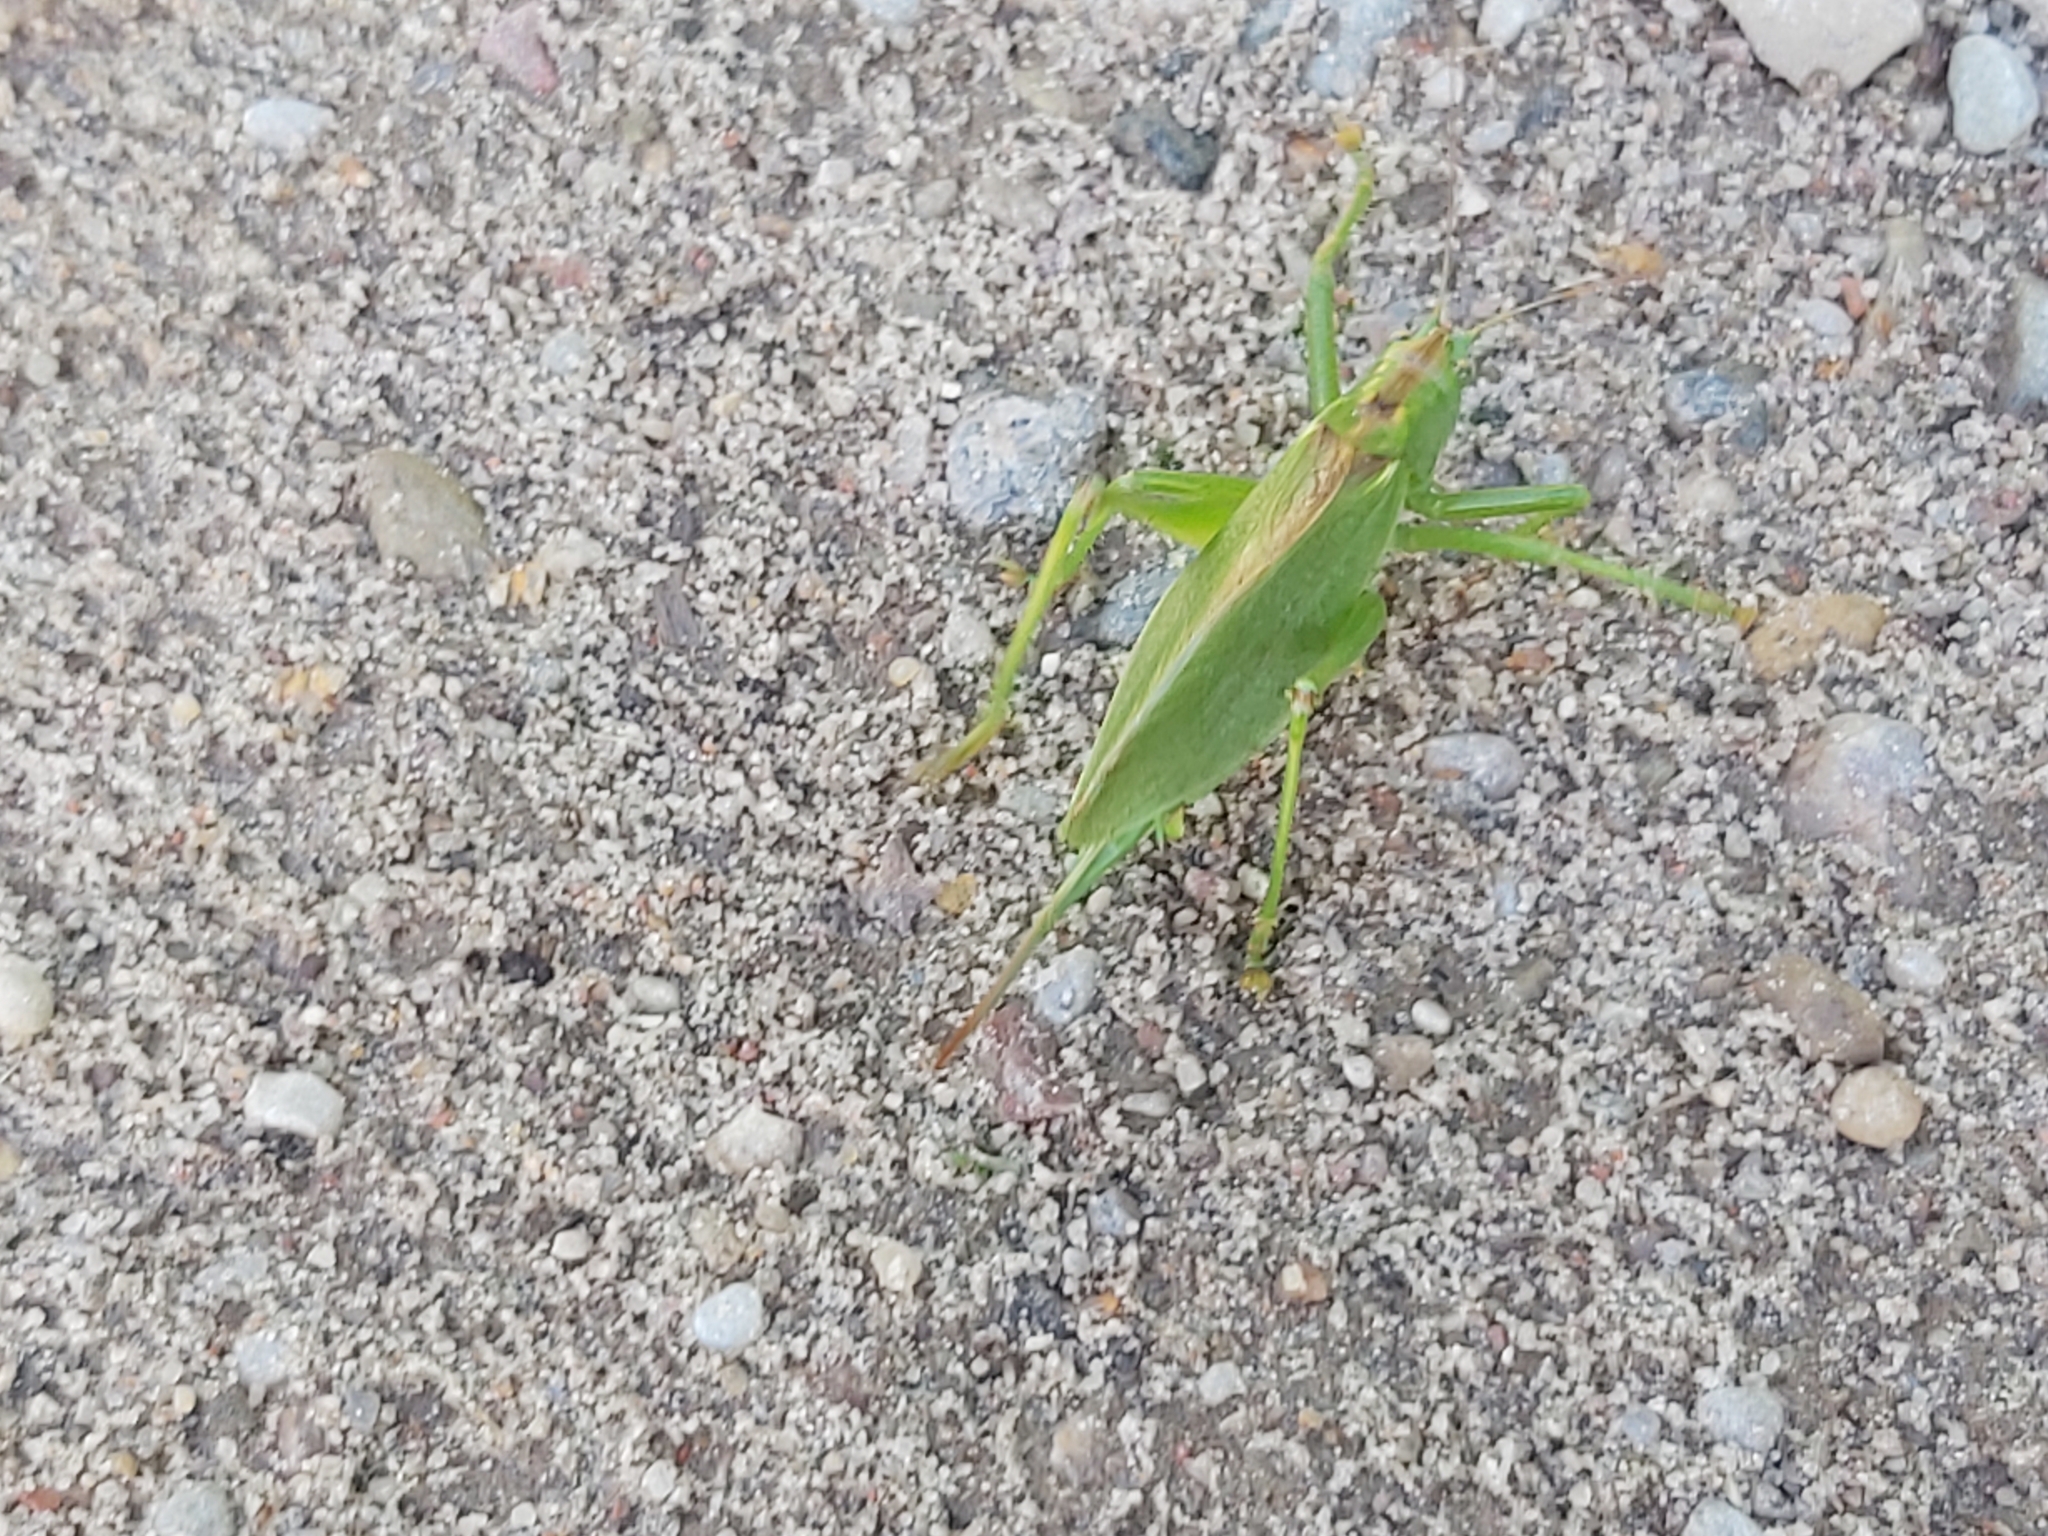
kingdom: Animalia
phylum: Arthropoda
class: Insecta
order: Orthoptera
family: Tettigoniidae
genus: Tettigonia
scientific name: Tettigonia cantans
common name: Upland green bush-cricket
